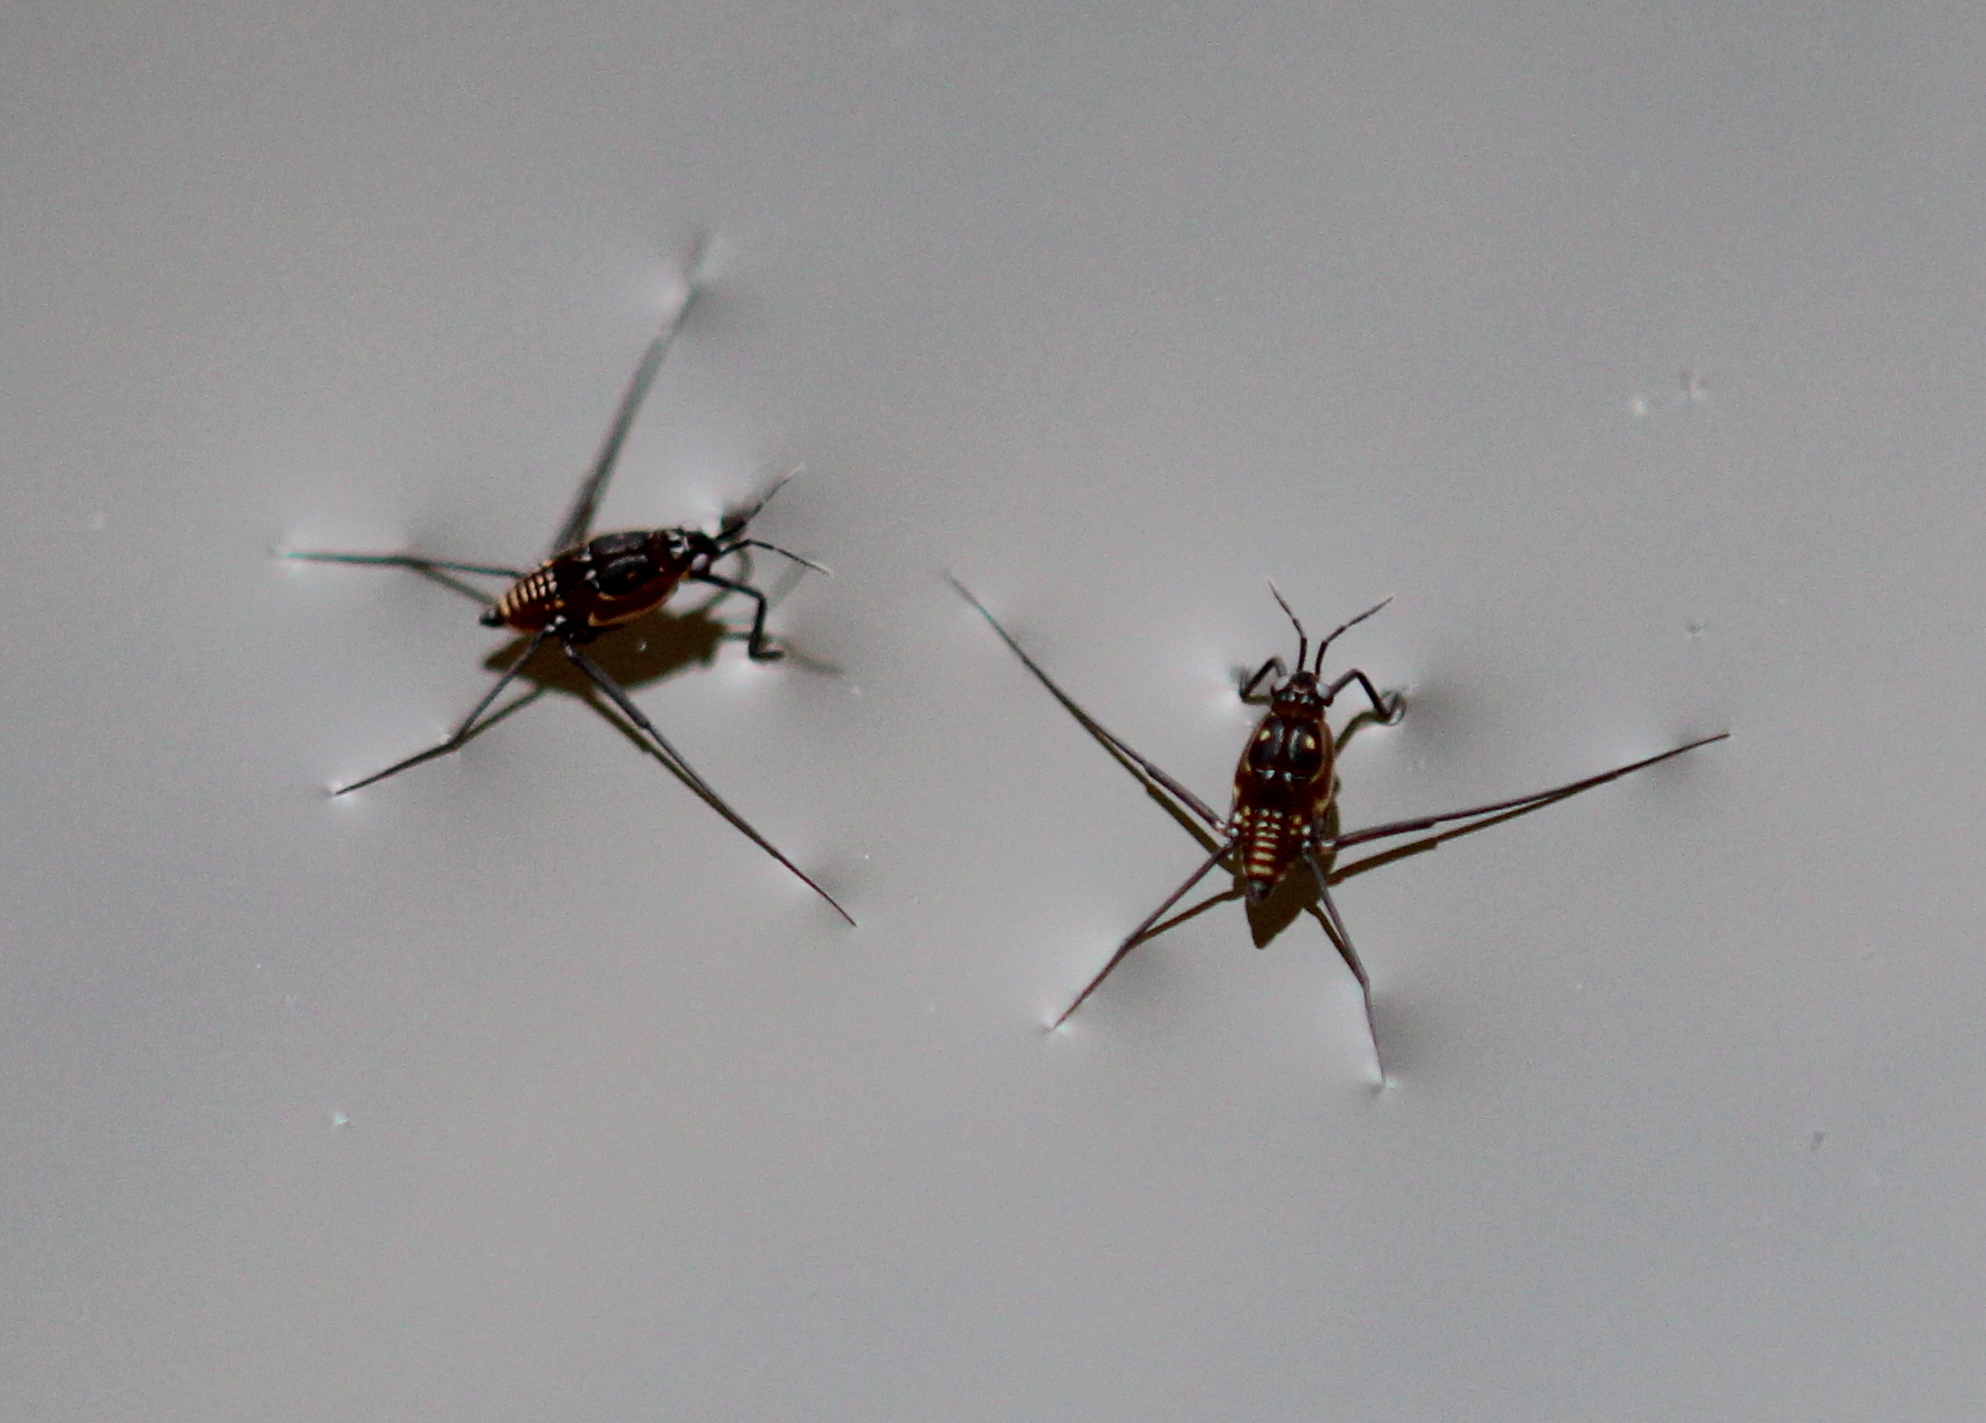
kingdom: Animalia
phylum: Arthropoda
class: Insecta
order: Hemiptera
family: Gerridae
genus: Trepobates
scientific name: Trepobates
